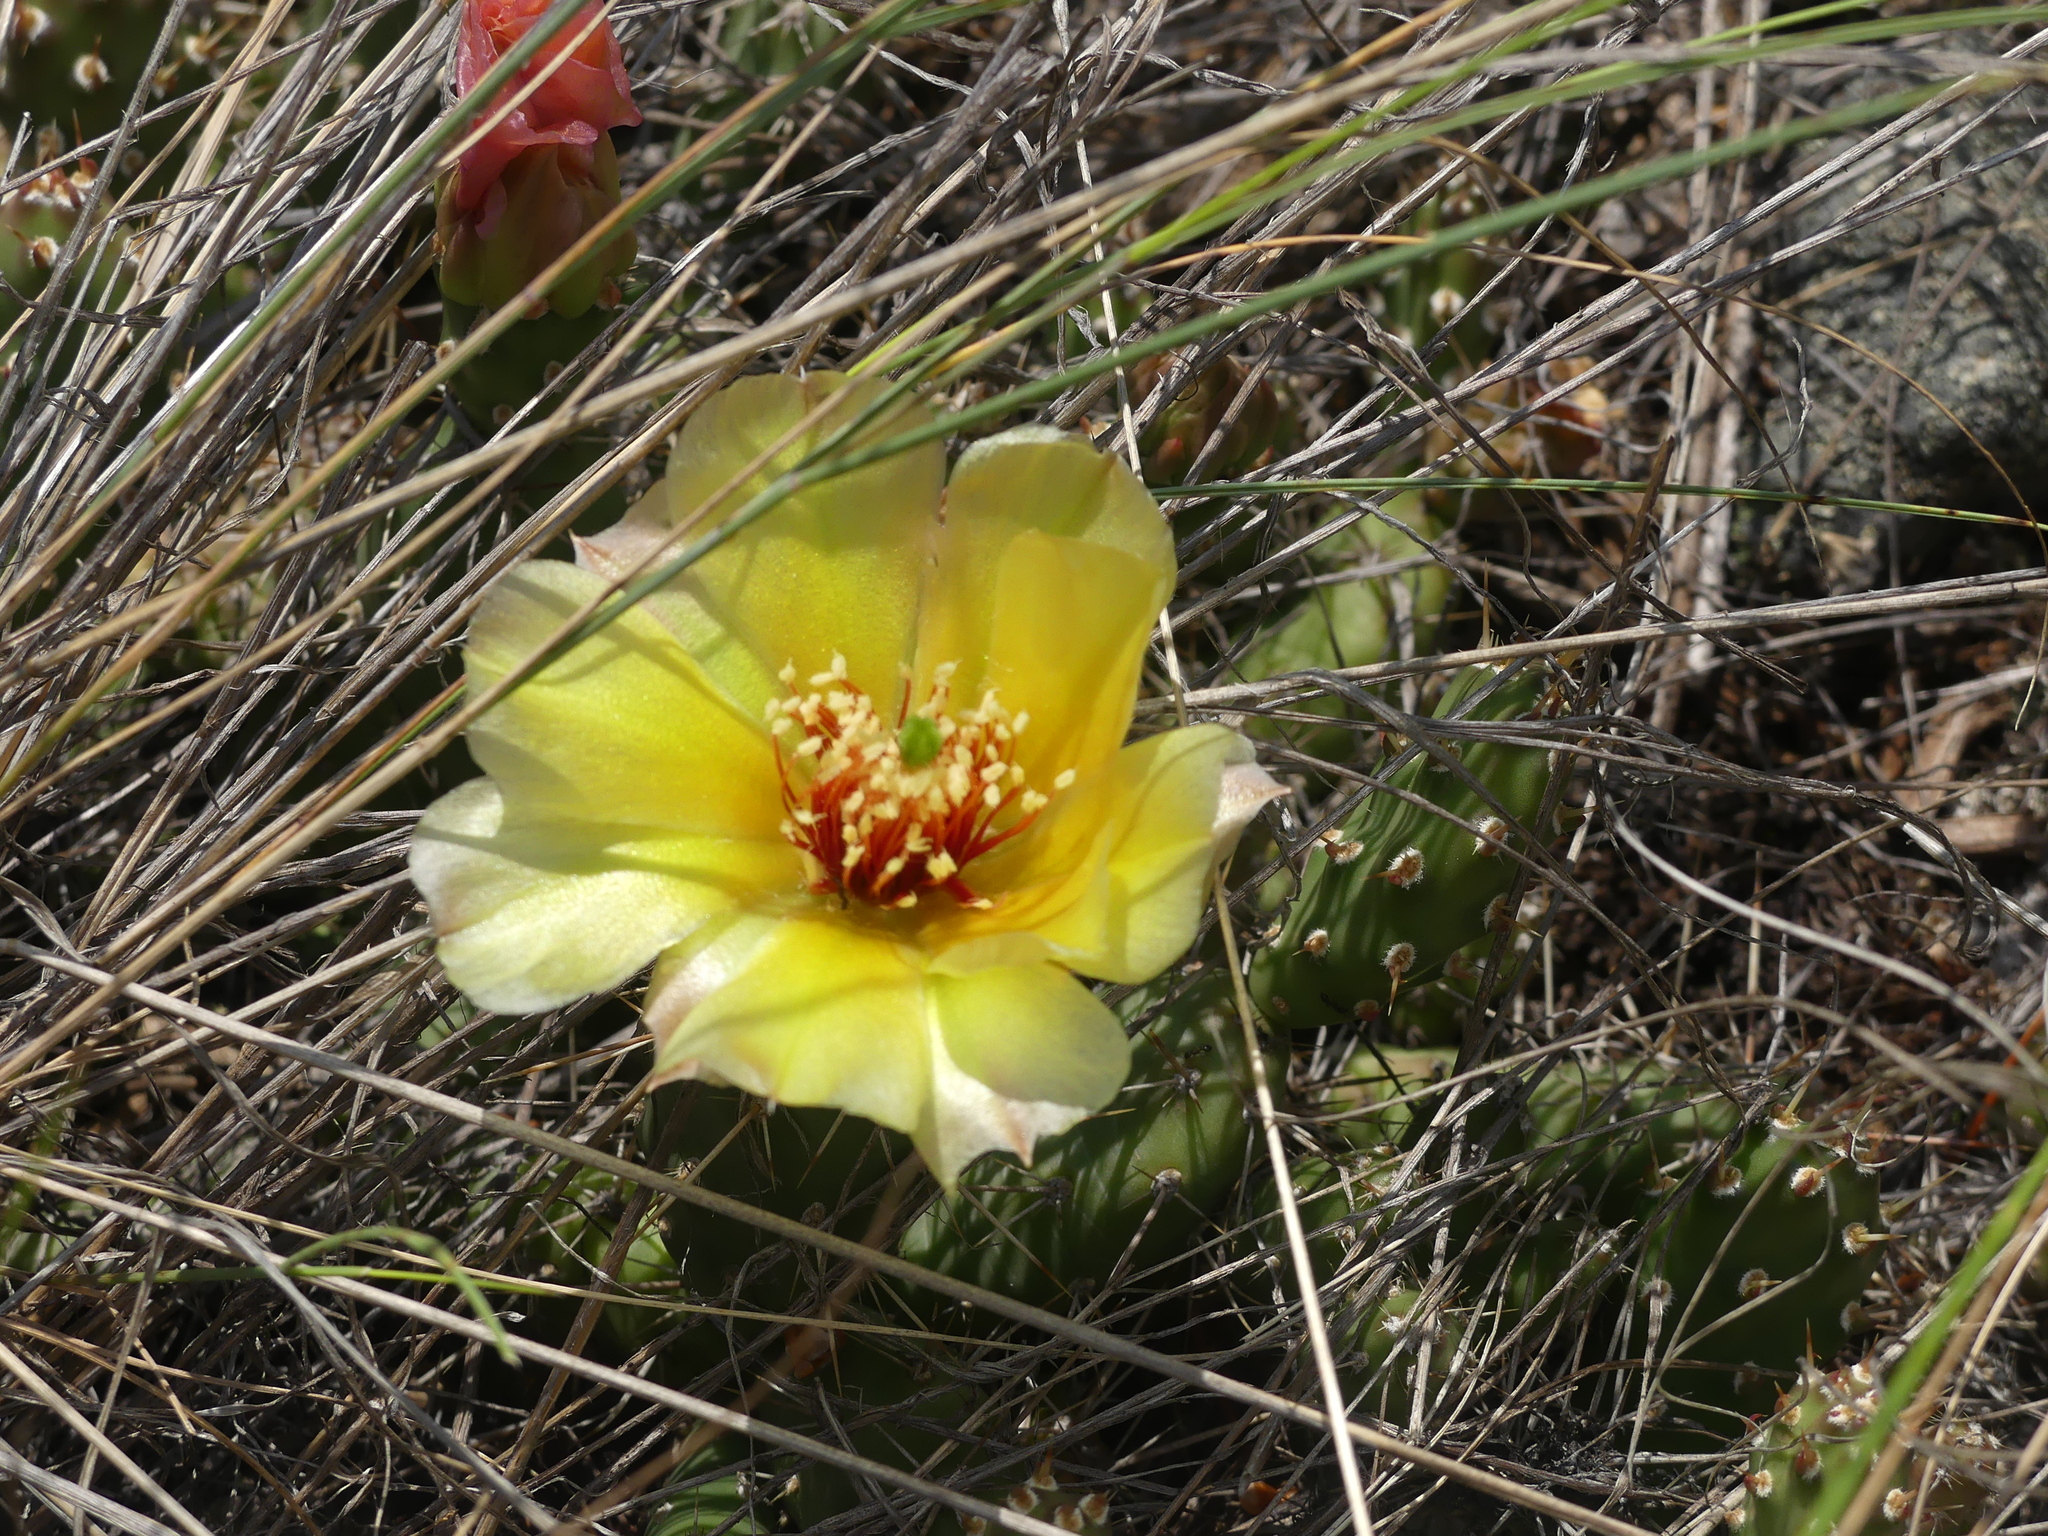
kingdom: Plantae
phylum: Tracheophyta
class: Magnoliopsida
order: Caryophyllales
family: Cactaceae
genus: Opuntia
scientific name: Opuntia fragilis
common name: Brittle cactus
